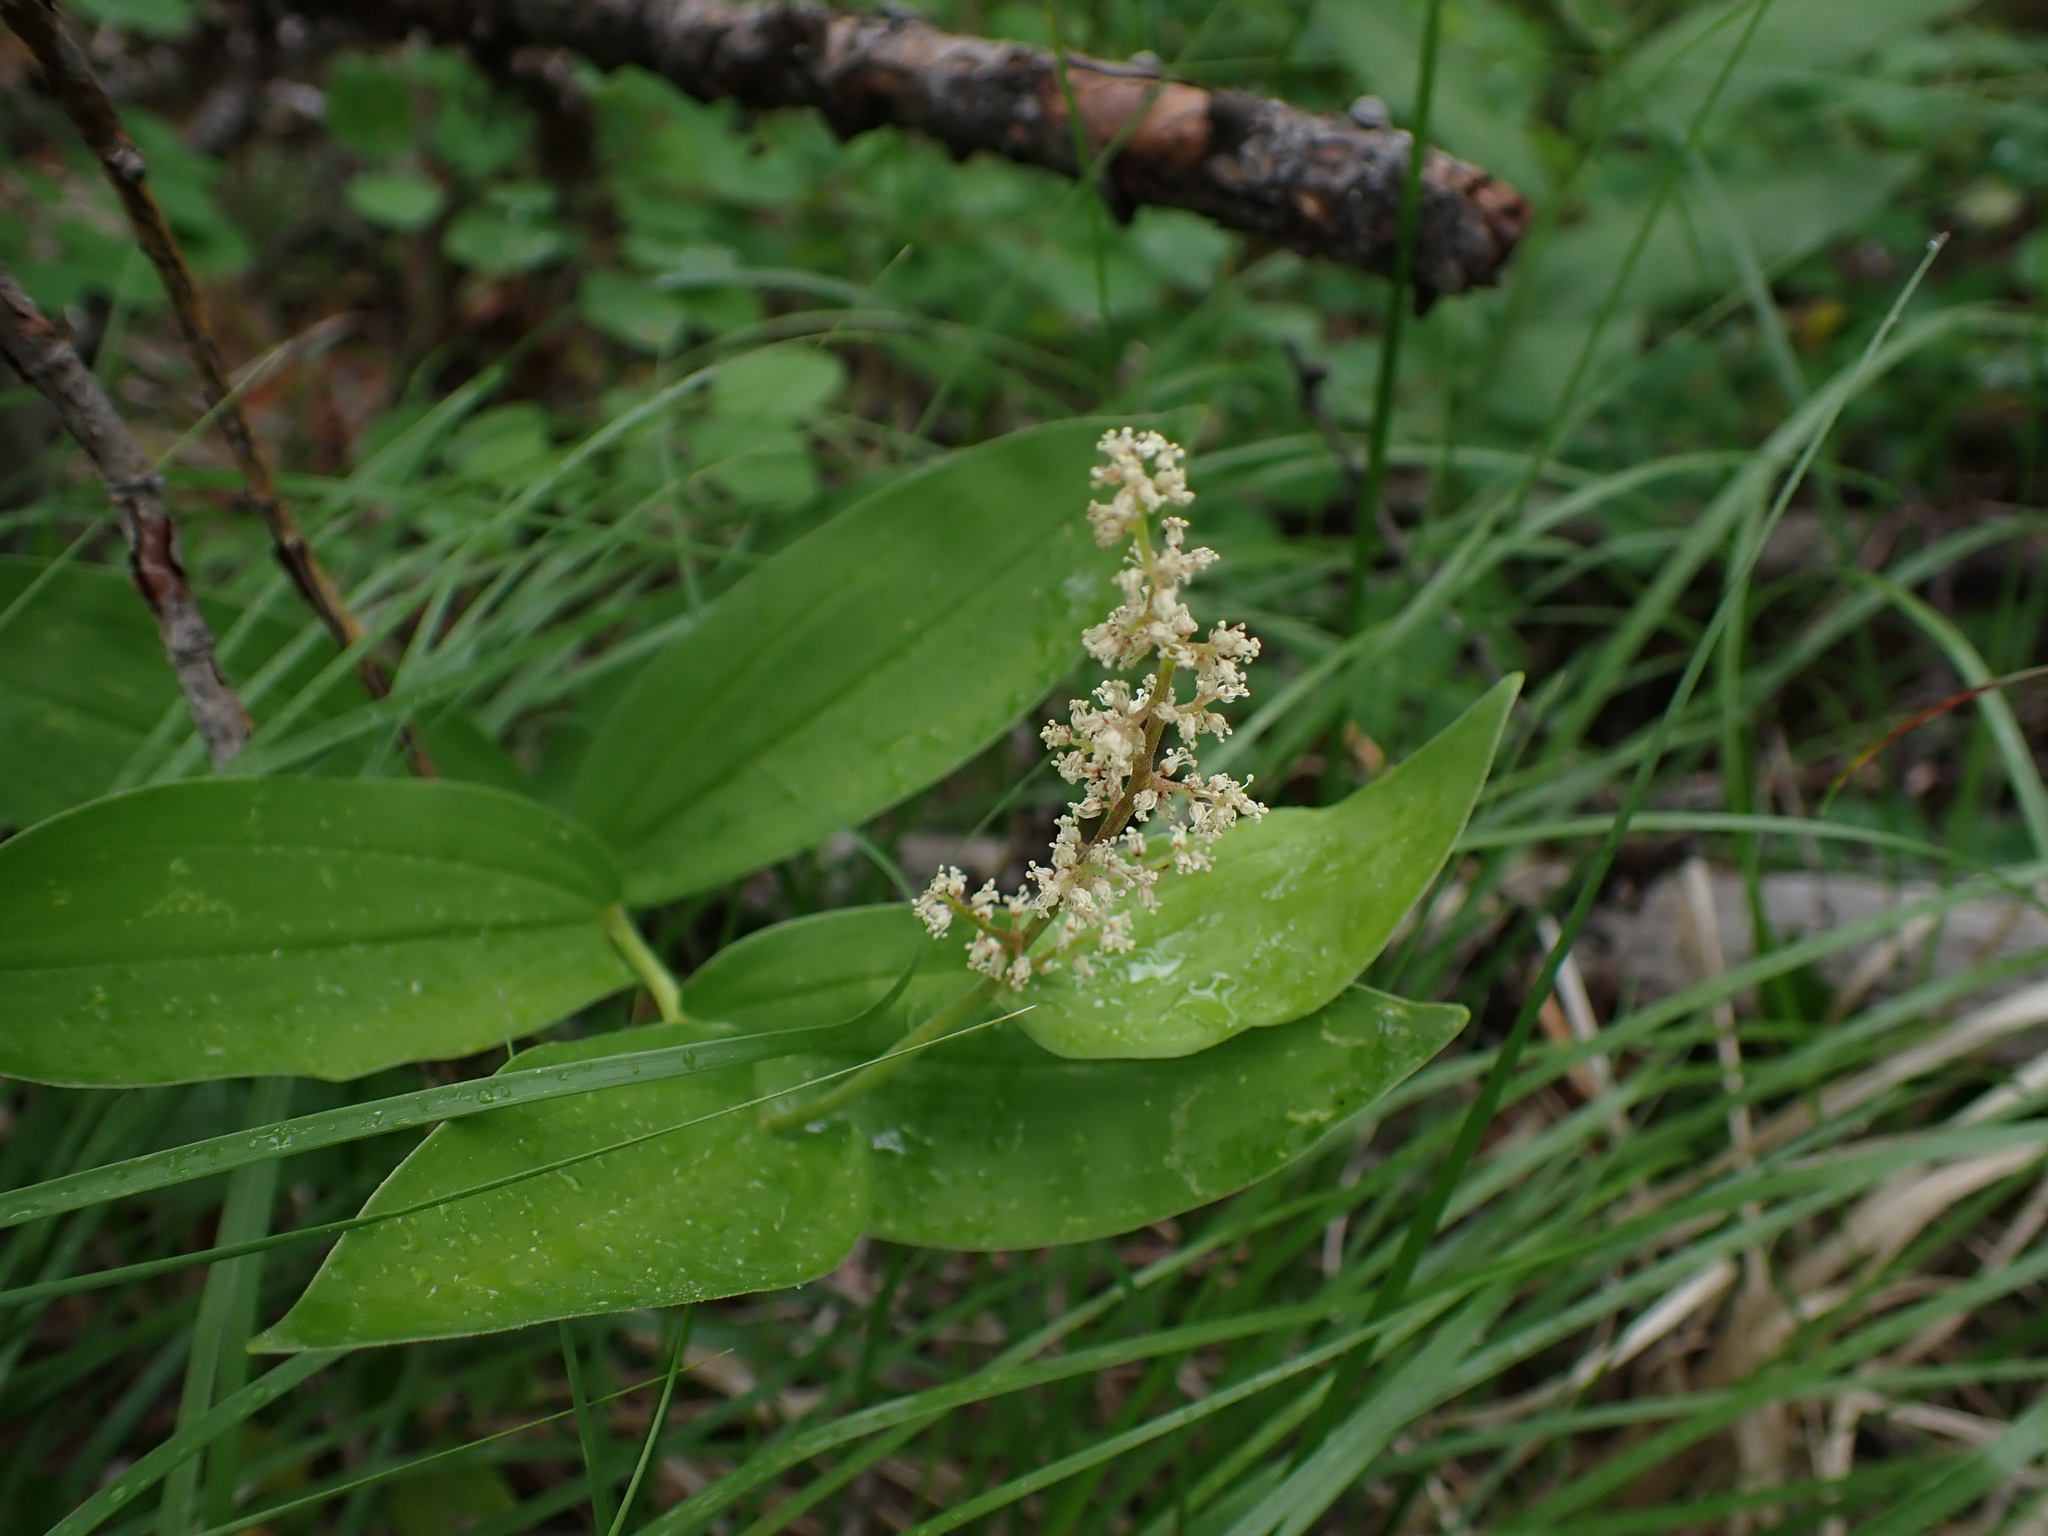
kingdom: Plantae
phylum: Tracheophyta
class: Liliopsida
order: Asparagales
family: Asparagaceae
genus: Maianthemum
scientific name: Maianthemum racemosum
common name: False spikenard
